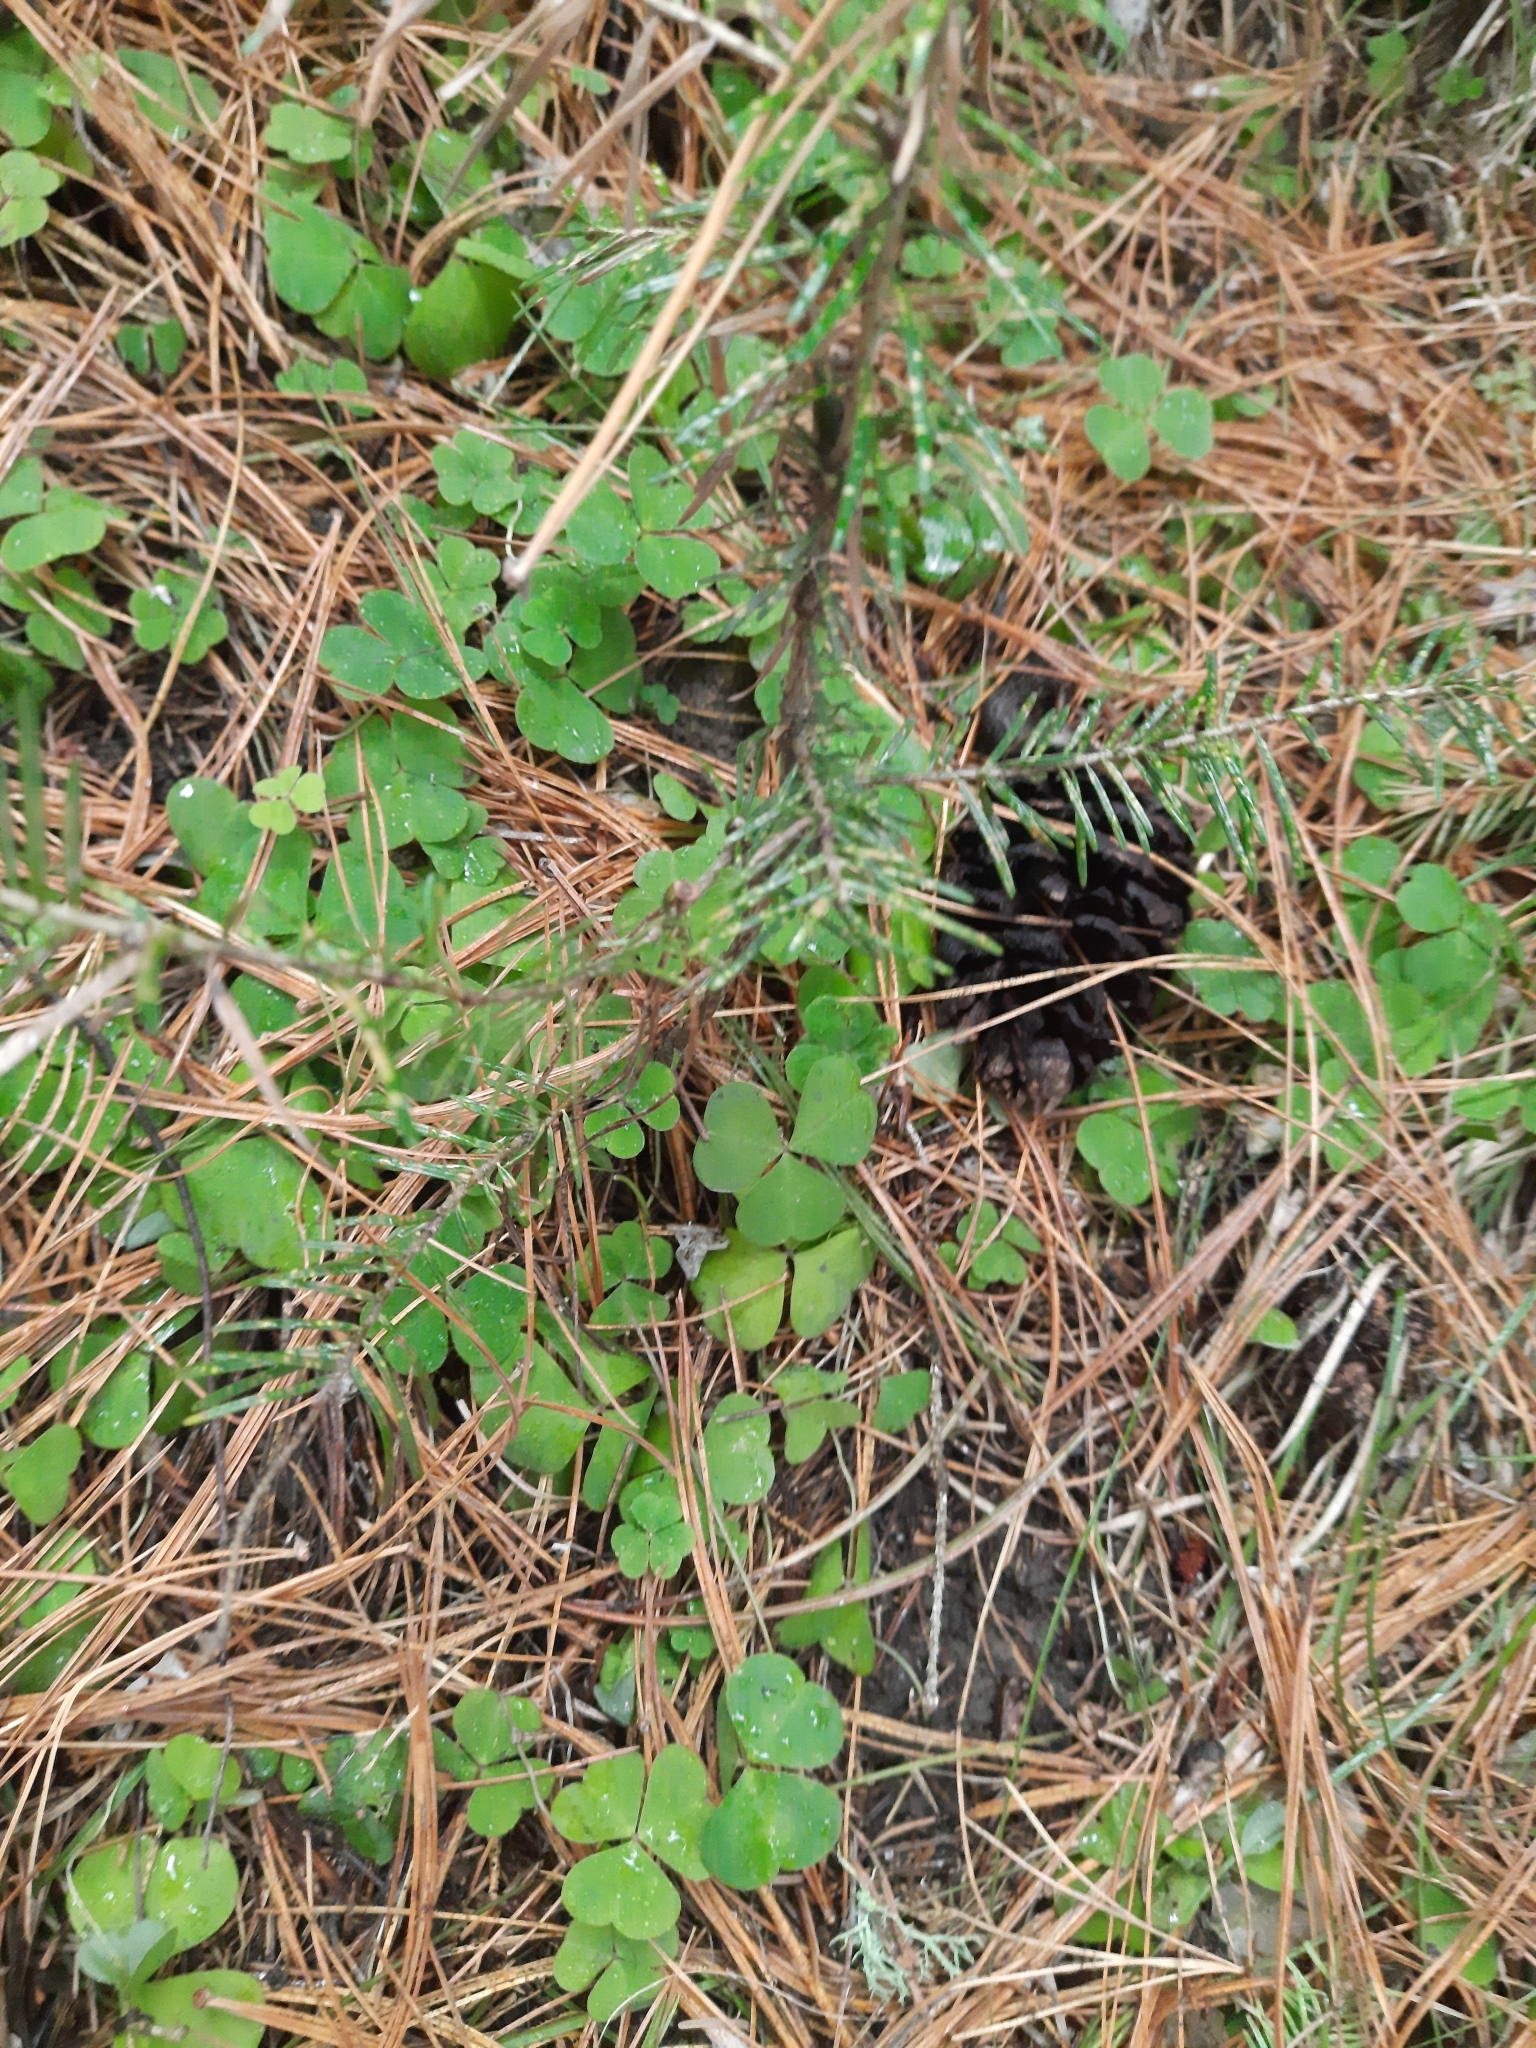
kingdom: Plantae
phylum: Tracheophyta
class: Magnoliopsida
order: Oxalidales
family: Oxalidaceae
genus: Oxalis
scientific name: Oxalis acetosella
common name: Wood-sorrel
